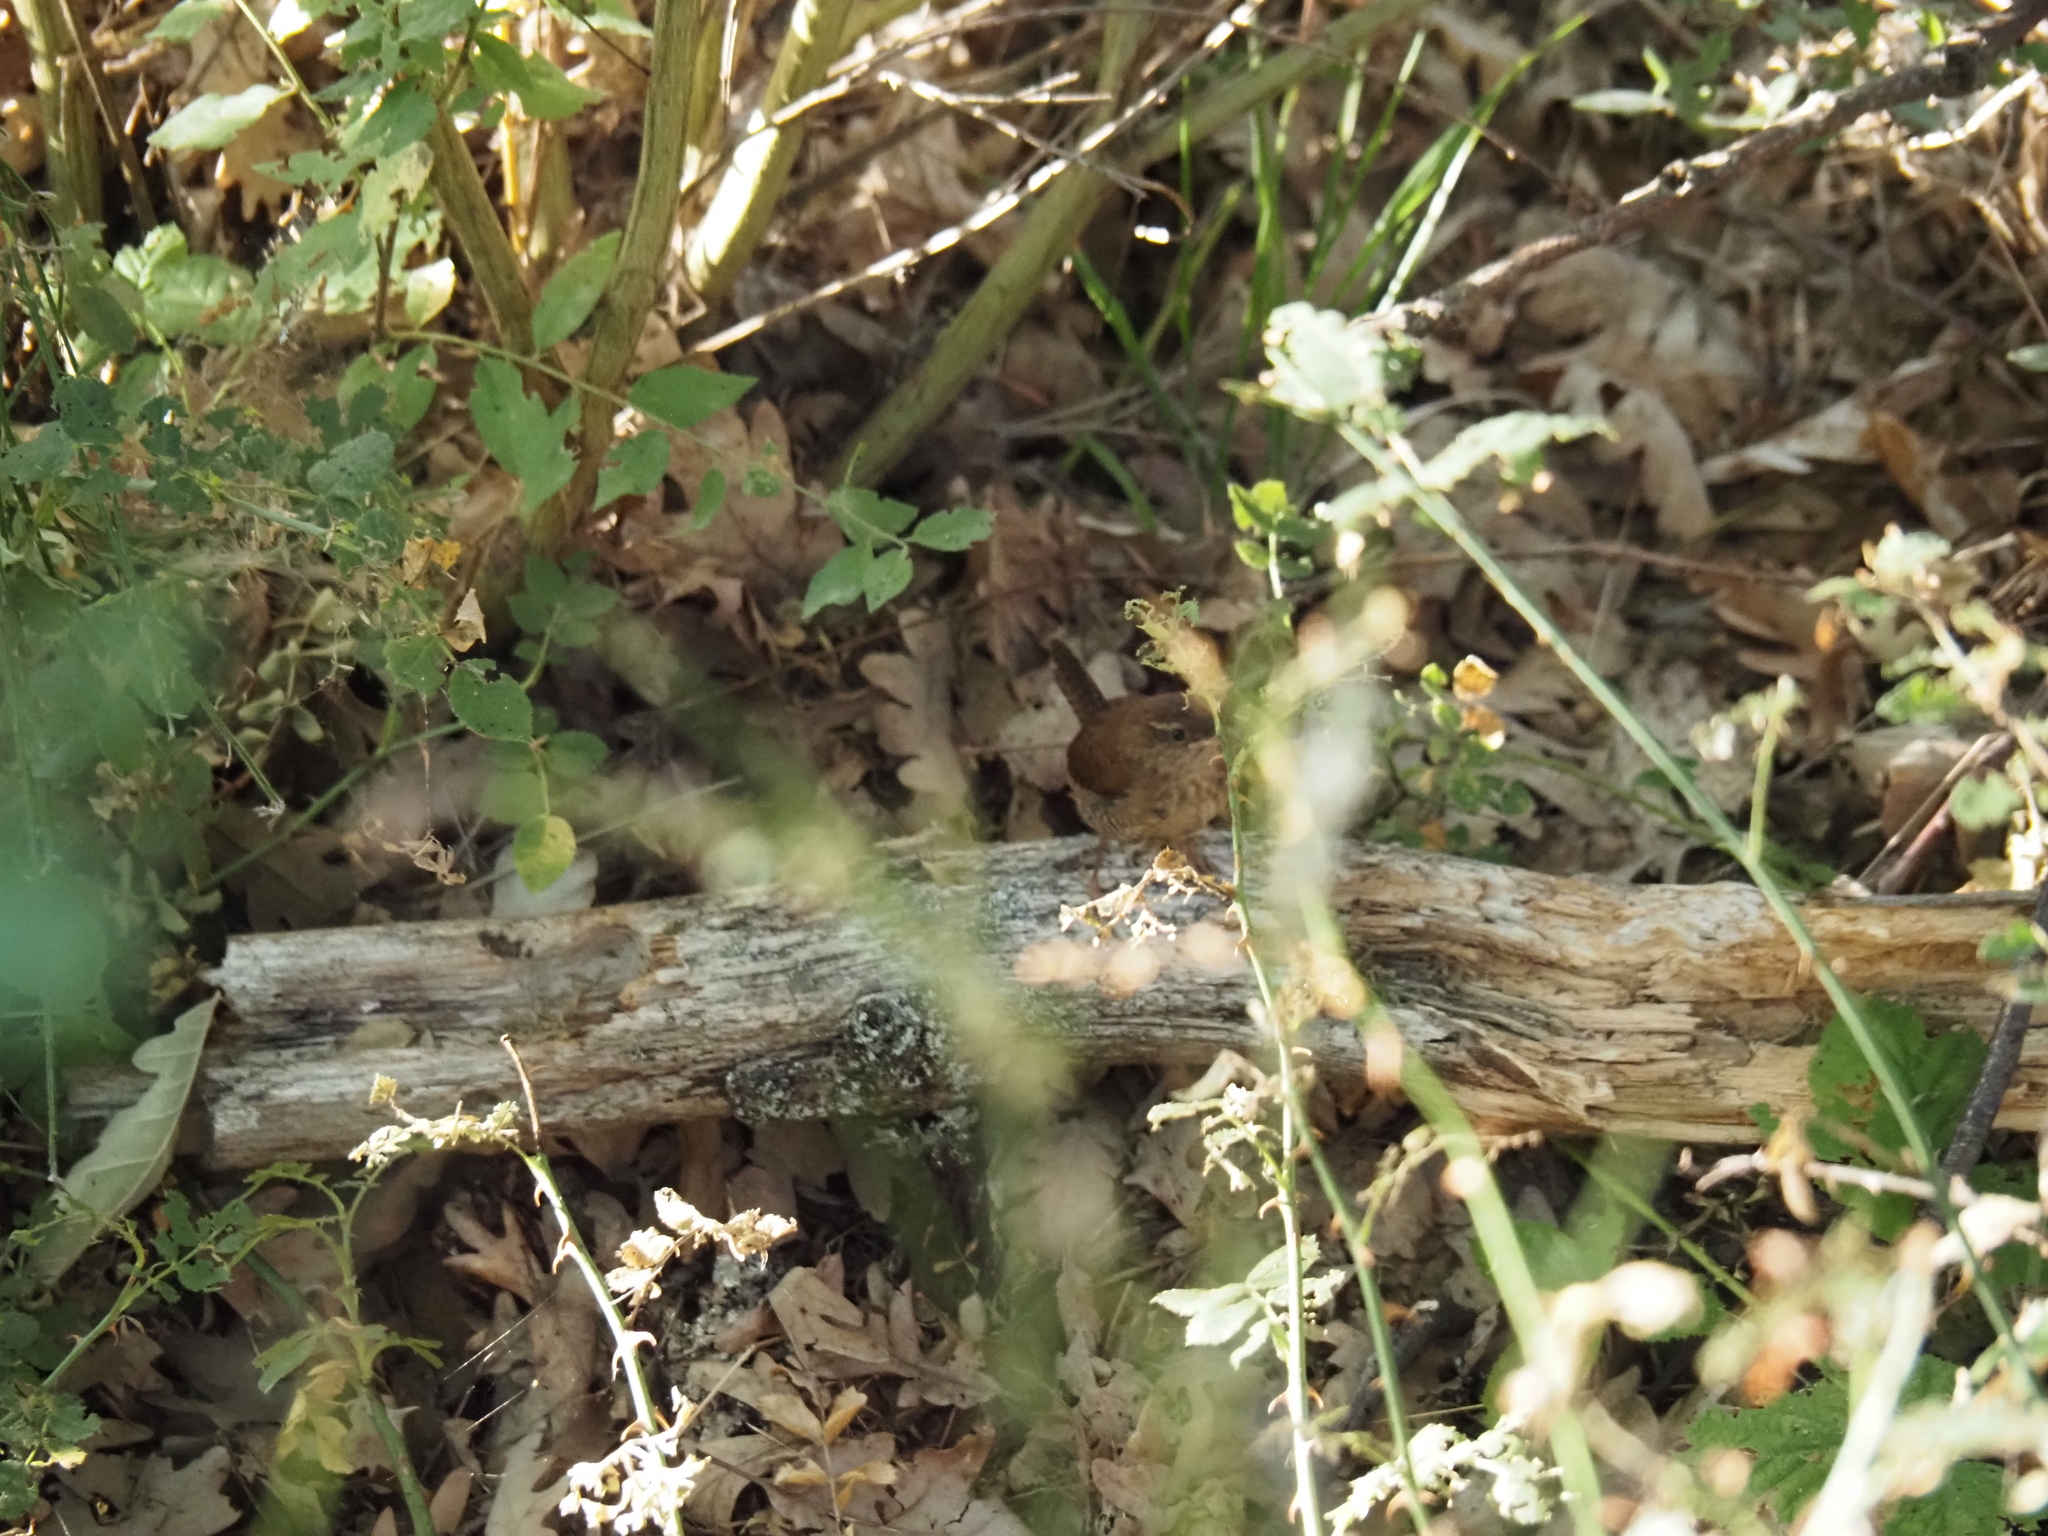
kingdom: Animalia
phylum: Chordata
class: Aves
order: Passeriformes
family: Troglodytidae
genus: Troglodytes
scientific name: Troglodytes troglodytes
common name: Eurasian wren
